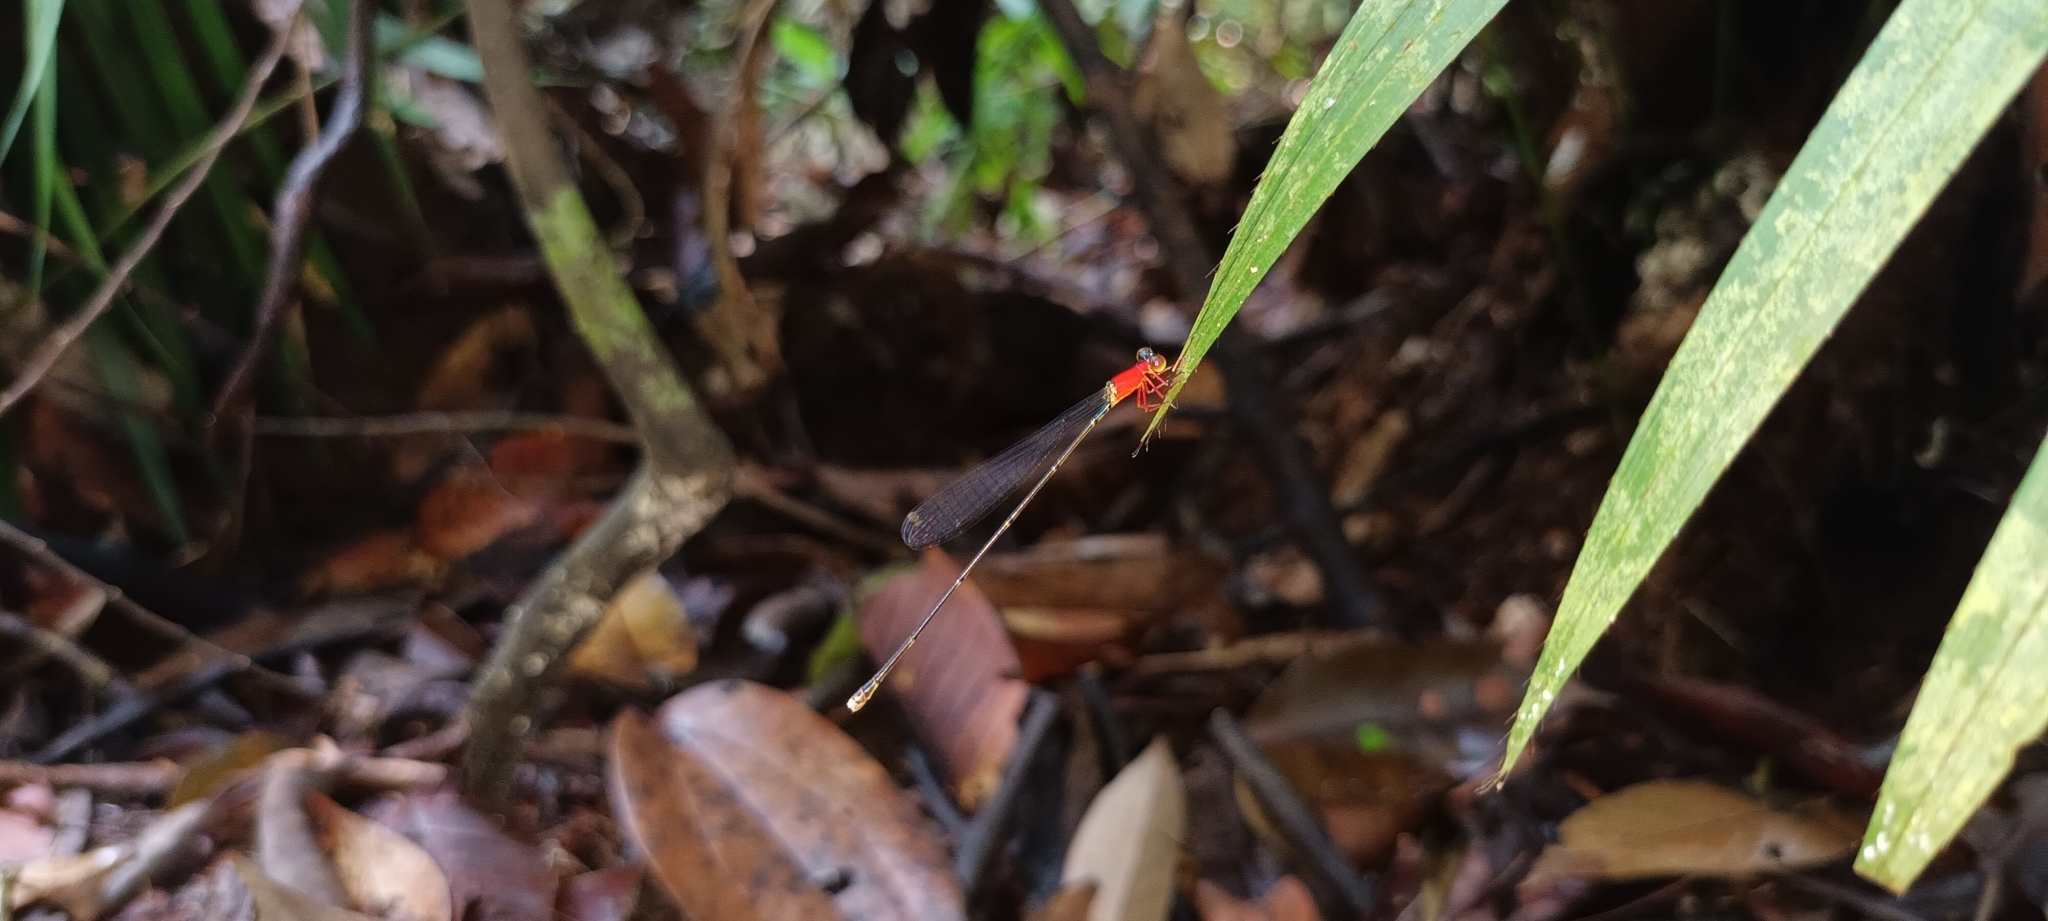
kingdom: Animalia
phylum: Arthropoda
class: Insecta
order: Odonata
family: Coenagrionidae
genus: Amphicnemis
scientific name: Amphicnemis gracilis
